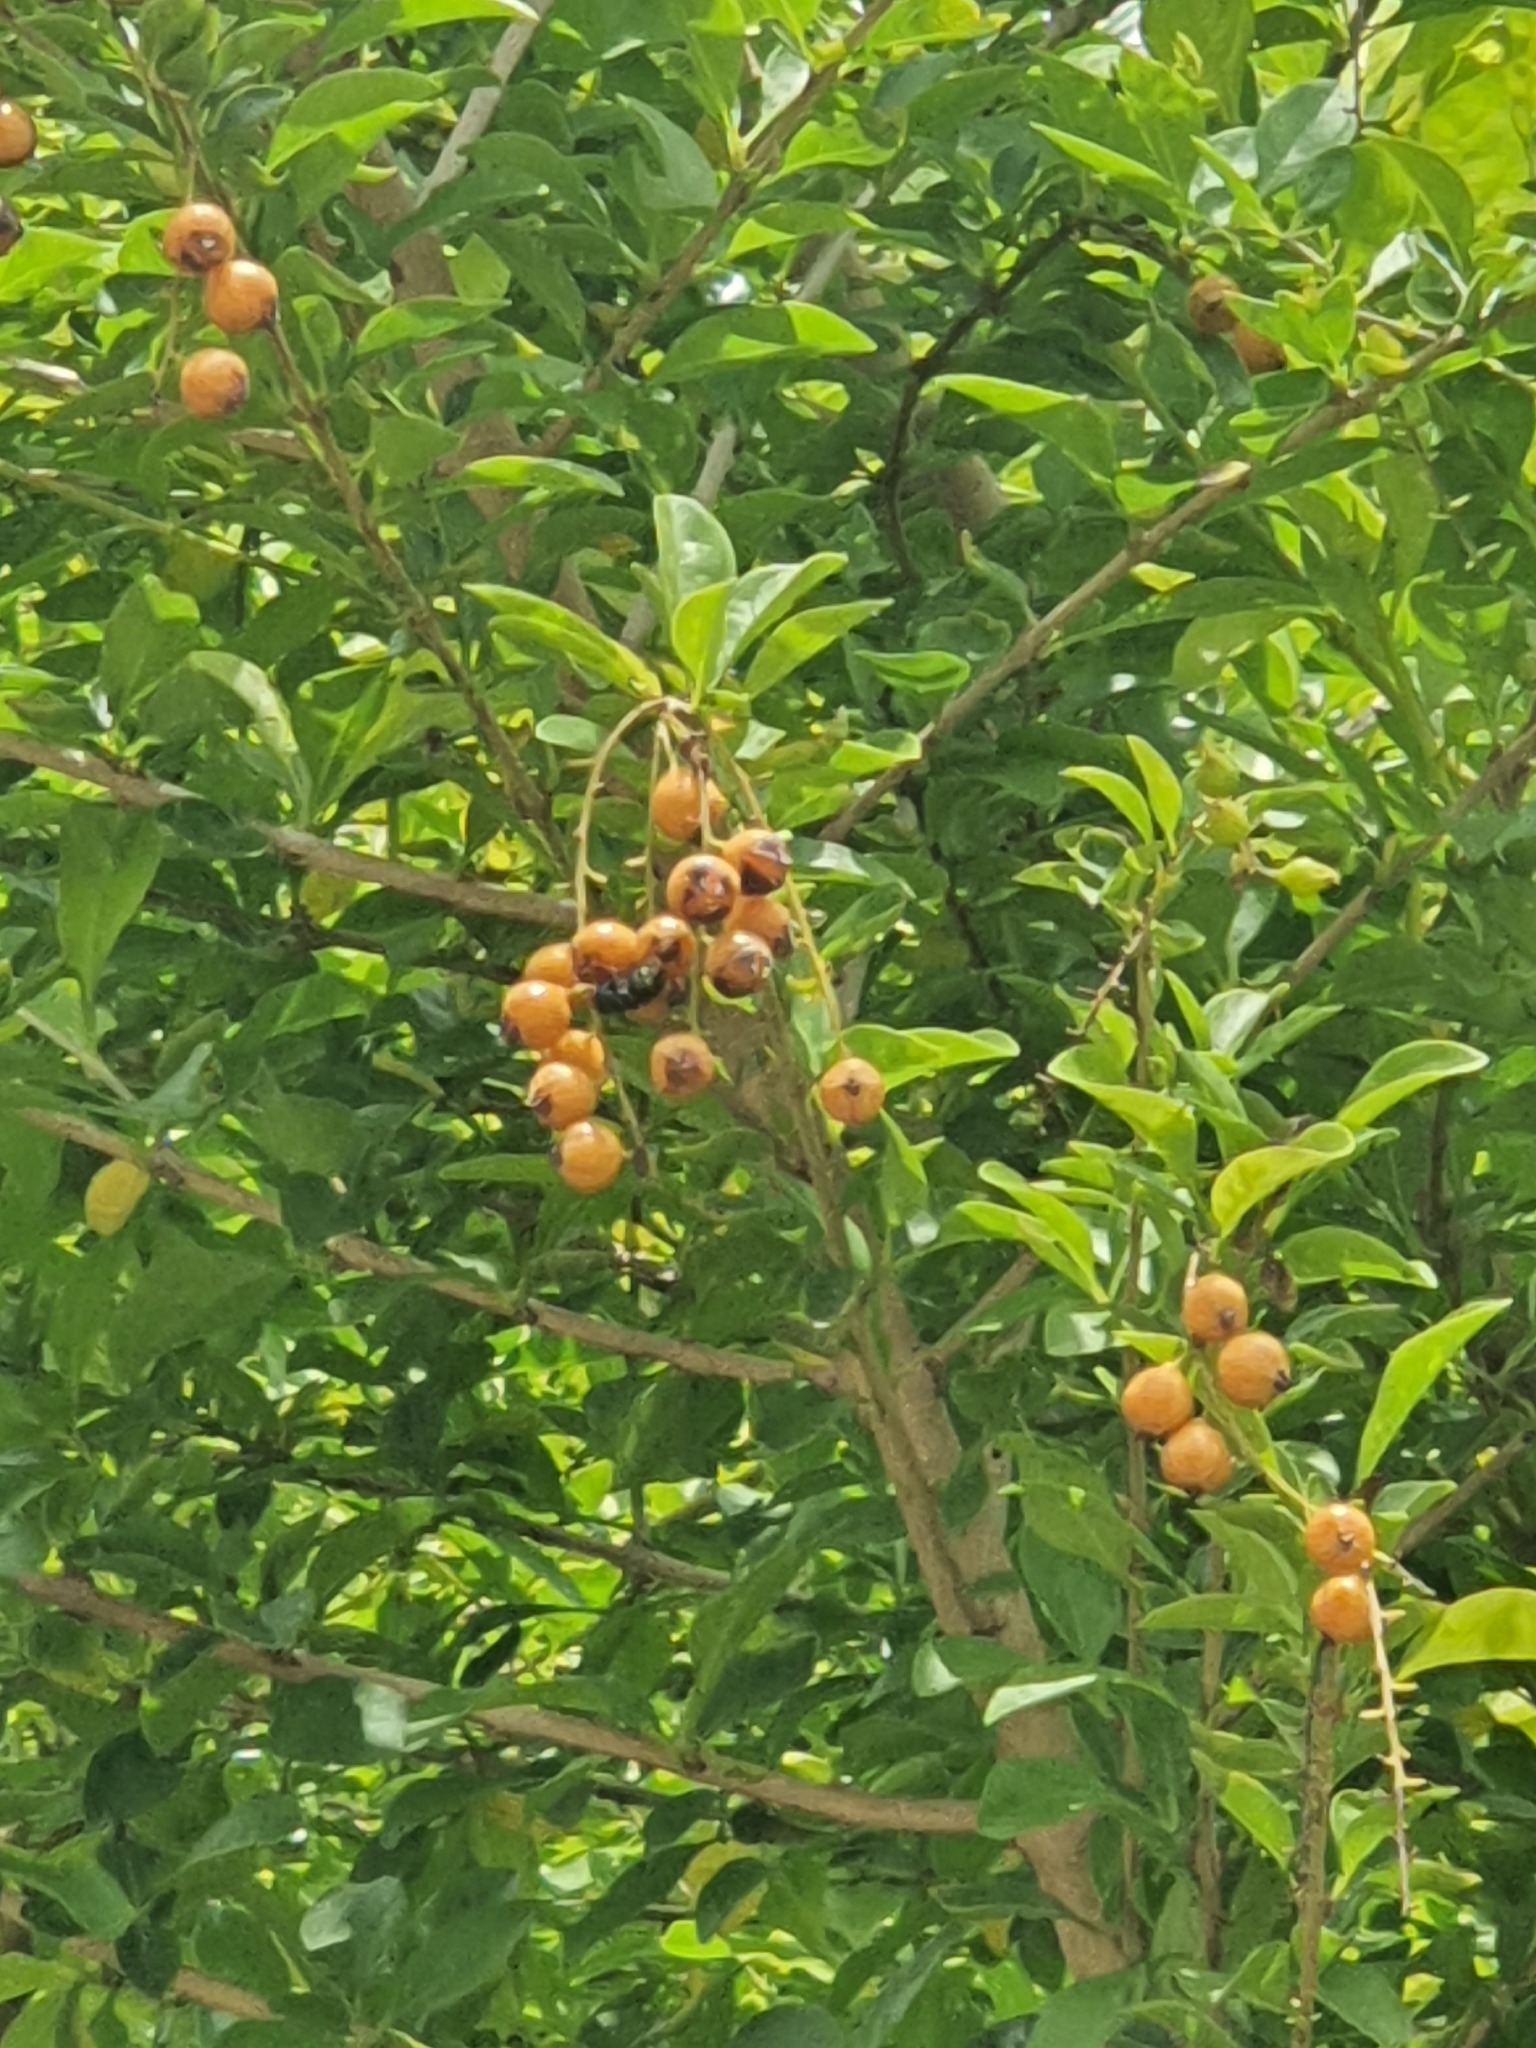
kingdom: Plantae
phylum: Tracheophyta
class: Magnoliopsida
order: Lamiales
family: Verbenaceae
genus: Duranta
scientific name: Duranta erecta
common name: Golden dewdrops
